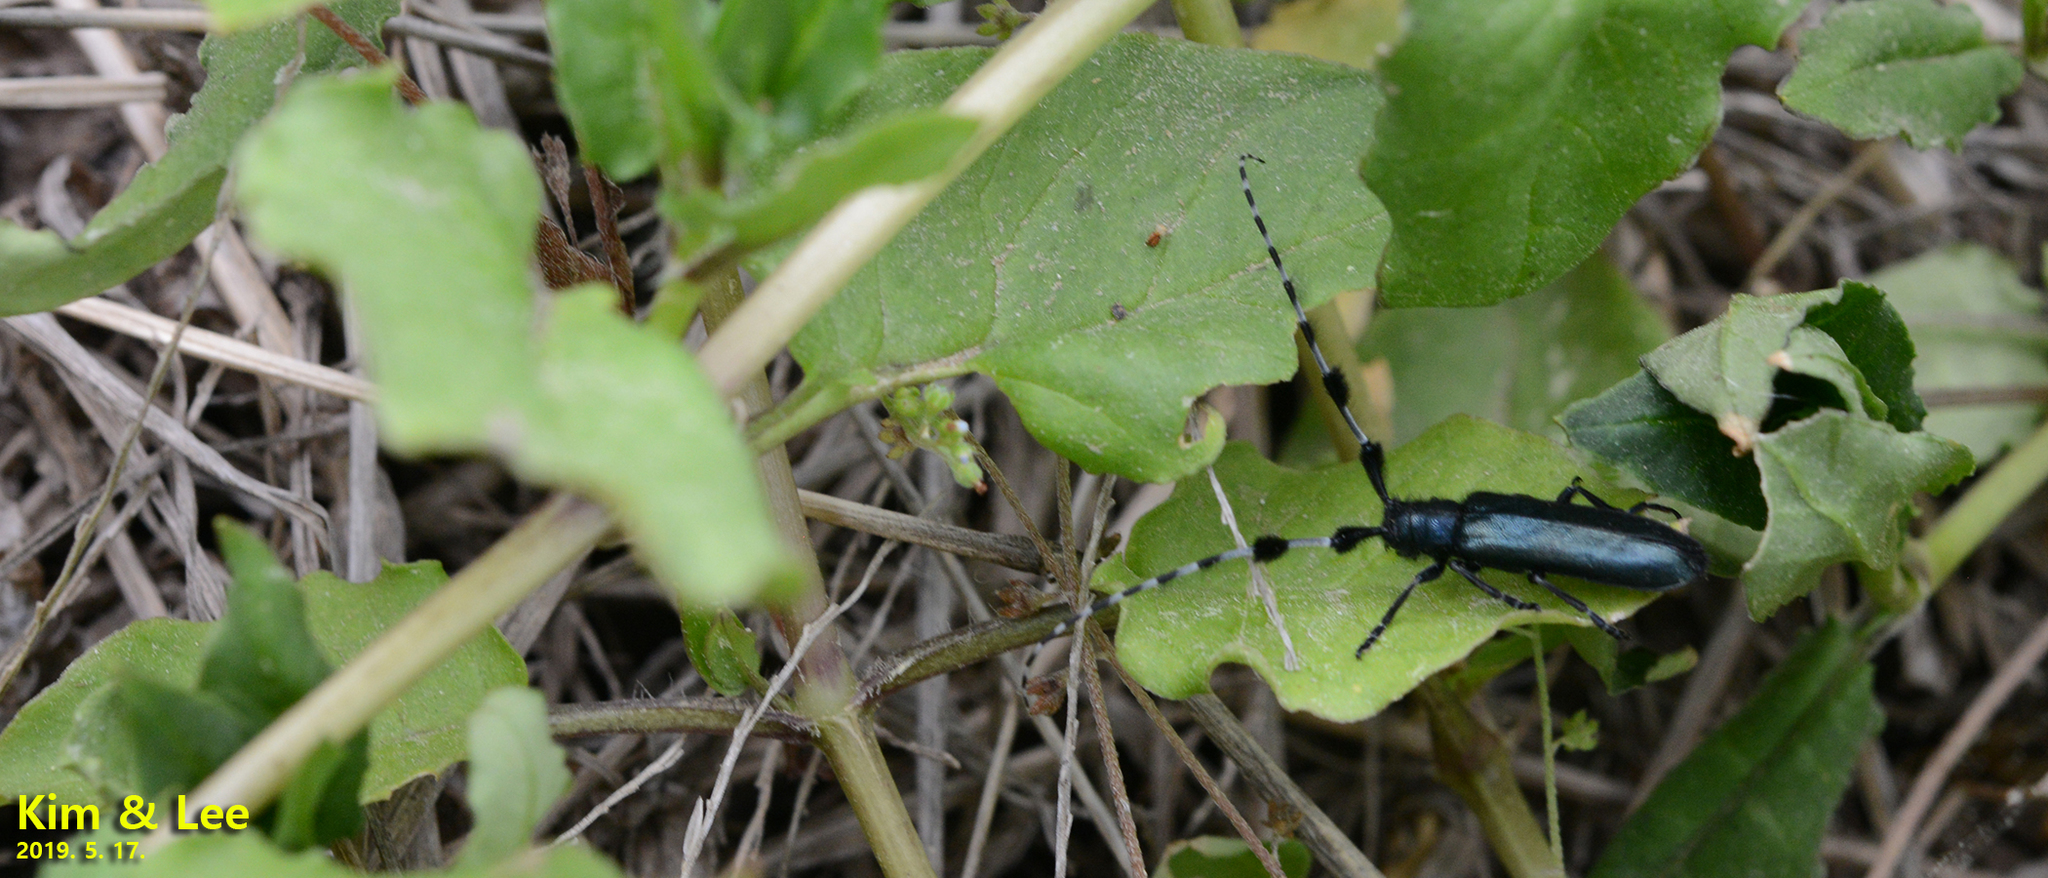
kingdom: Animalia
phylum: Arthropoda
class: Insecta
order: Coleoptera
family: Cerambycidae
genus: Agapanthia
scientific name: Agapanthia amurensis
